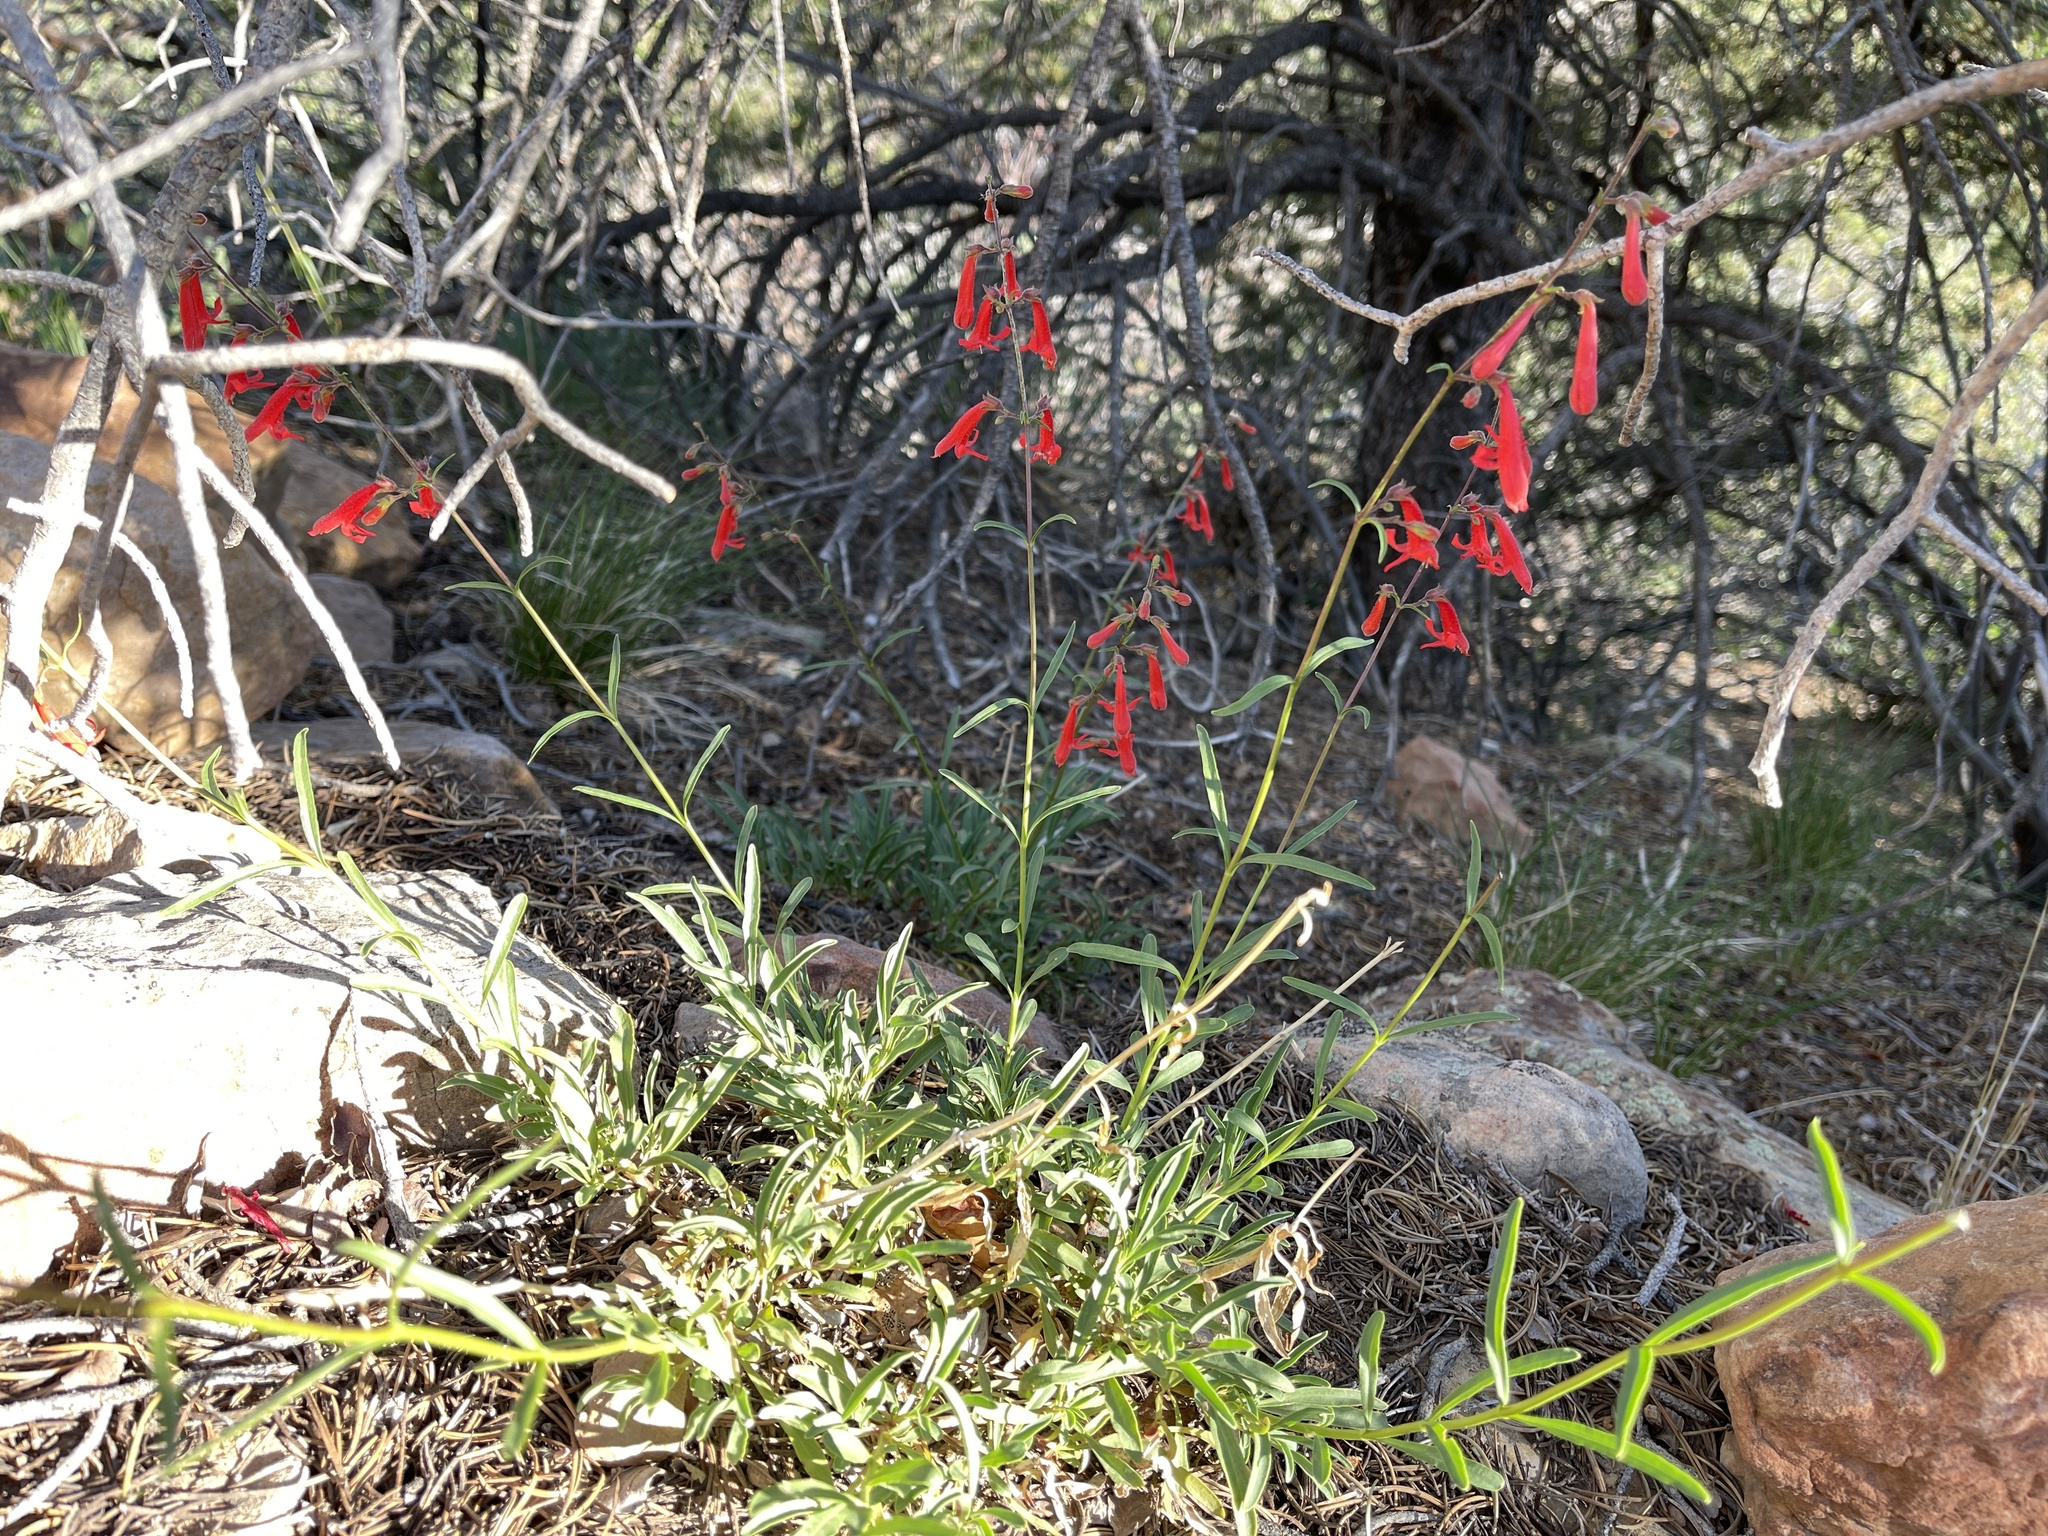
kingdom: Plantae
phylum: Tracheophyta
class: Magnoliopsida
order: Lamiales
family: Plantaginaceae
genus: Penstemon
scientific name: Penstemon rostriflorus
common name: Bridges's penstemon
